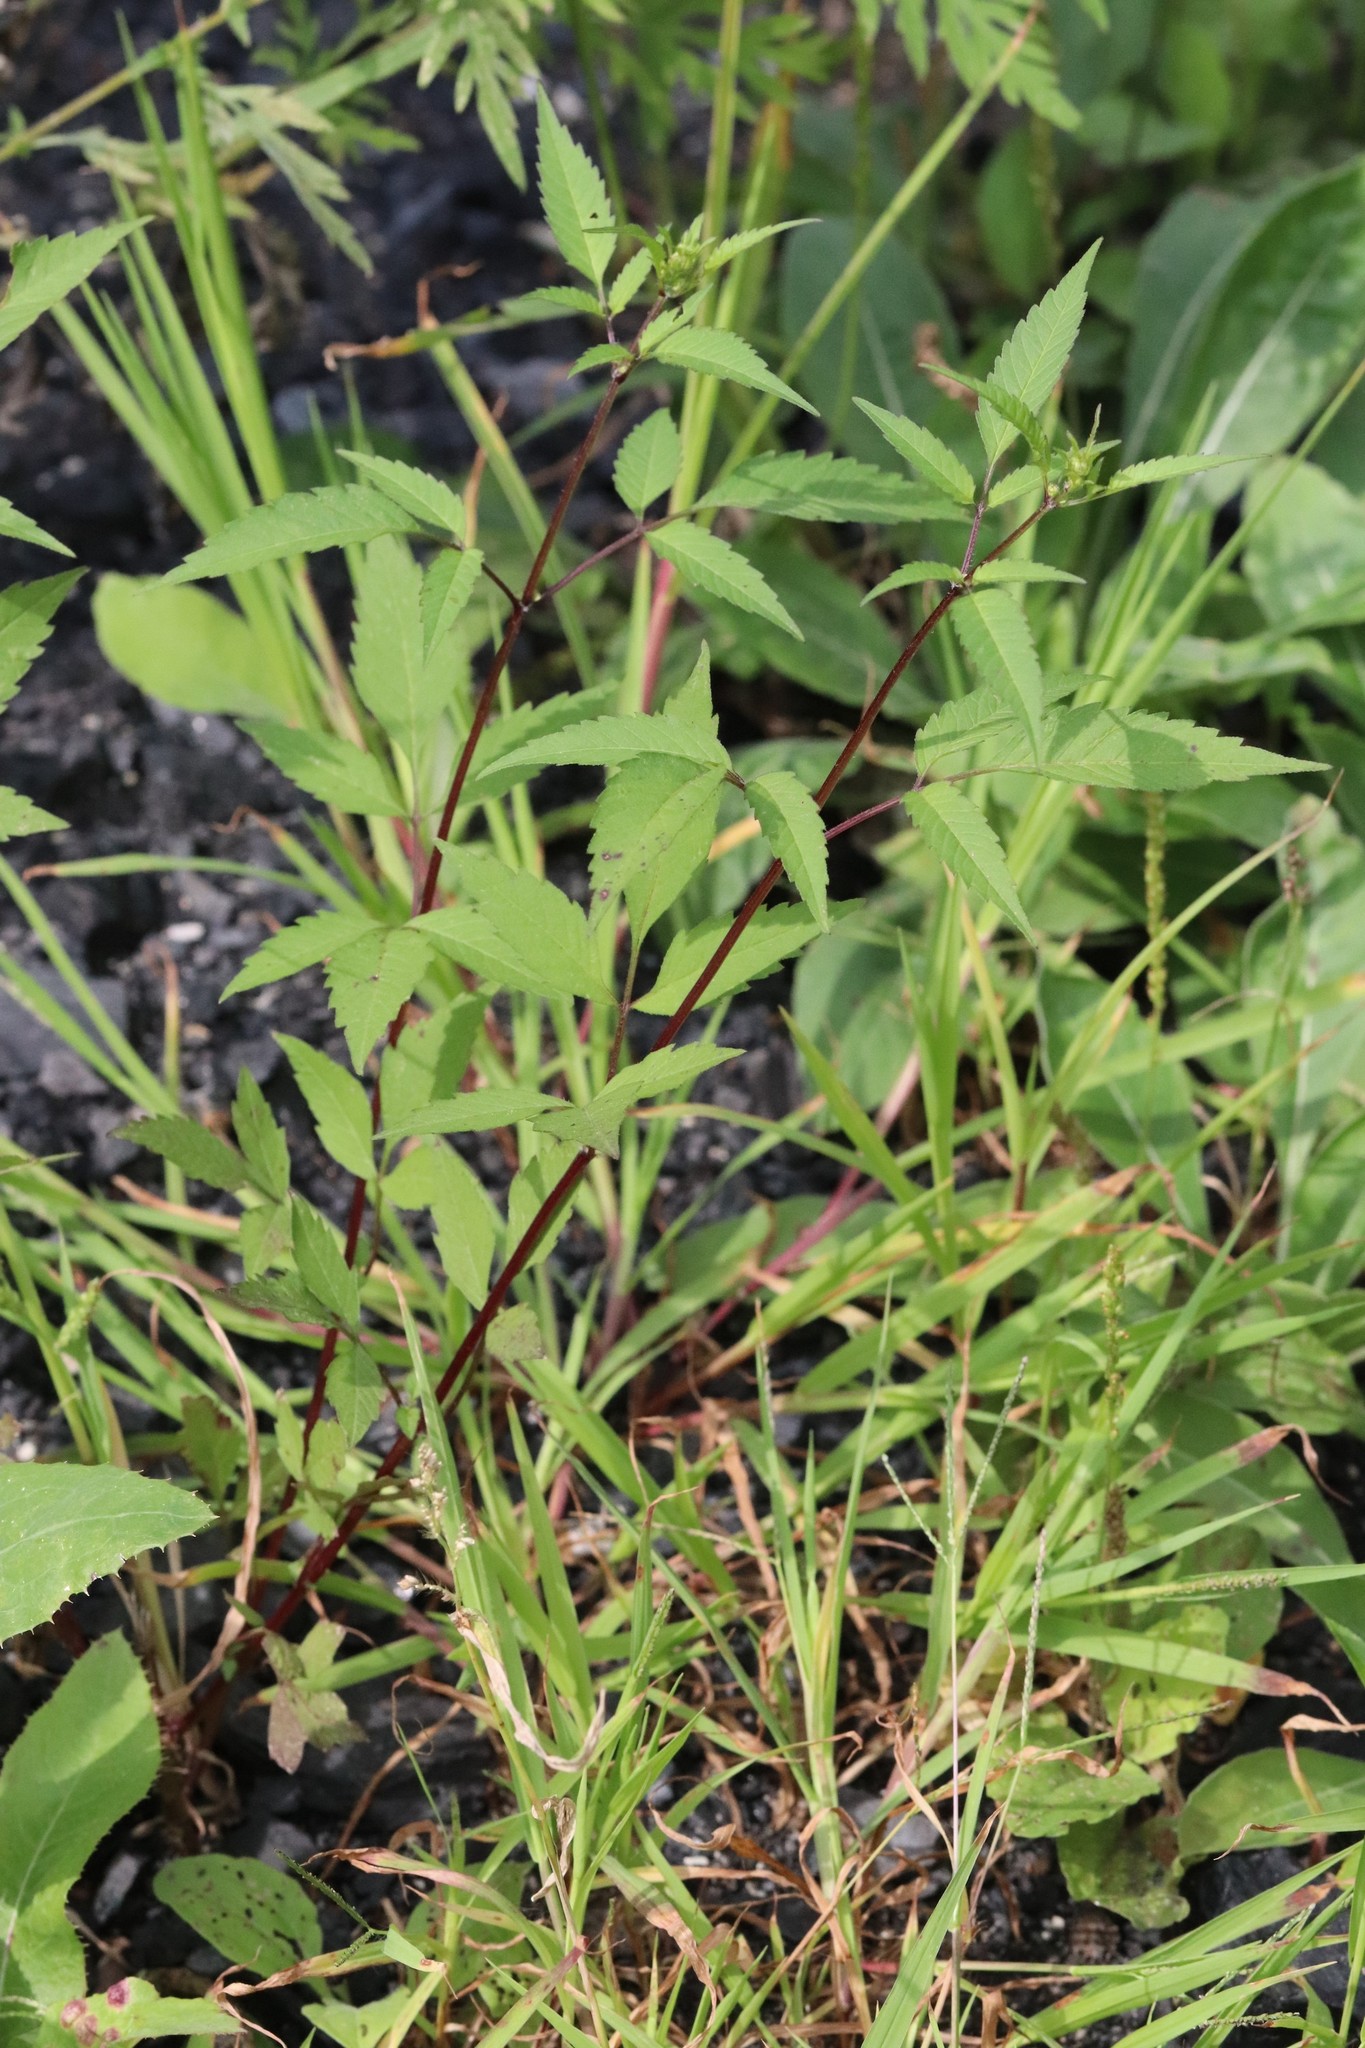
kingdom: Plantae
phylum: Tracheophyta
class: Magnoliopsida
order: Asterales
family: Asteraceae
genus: Bidens
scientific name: Bidens frondosa
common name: Beggarticks
